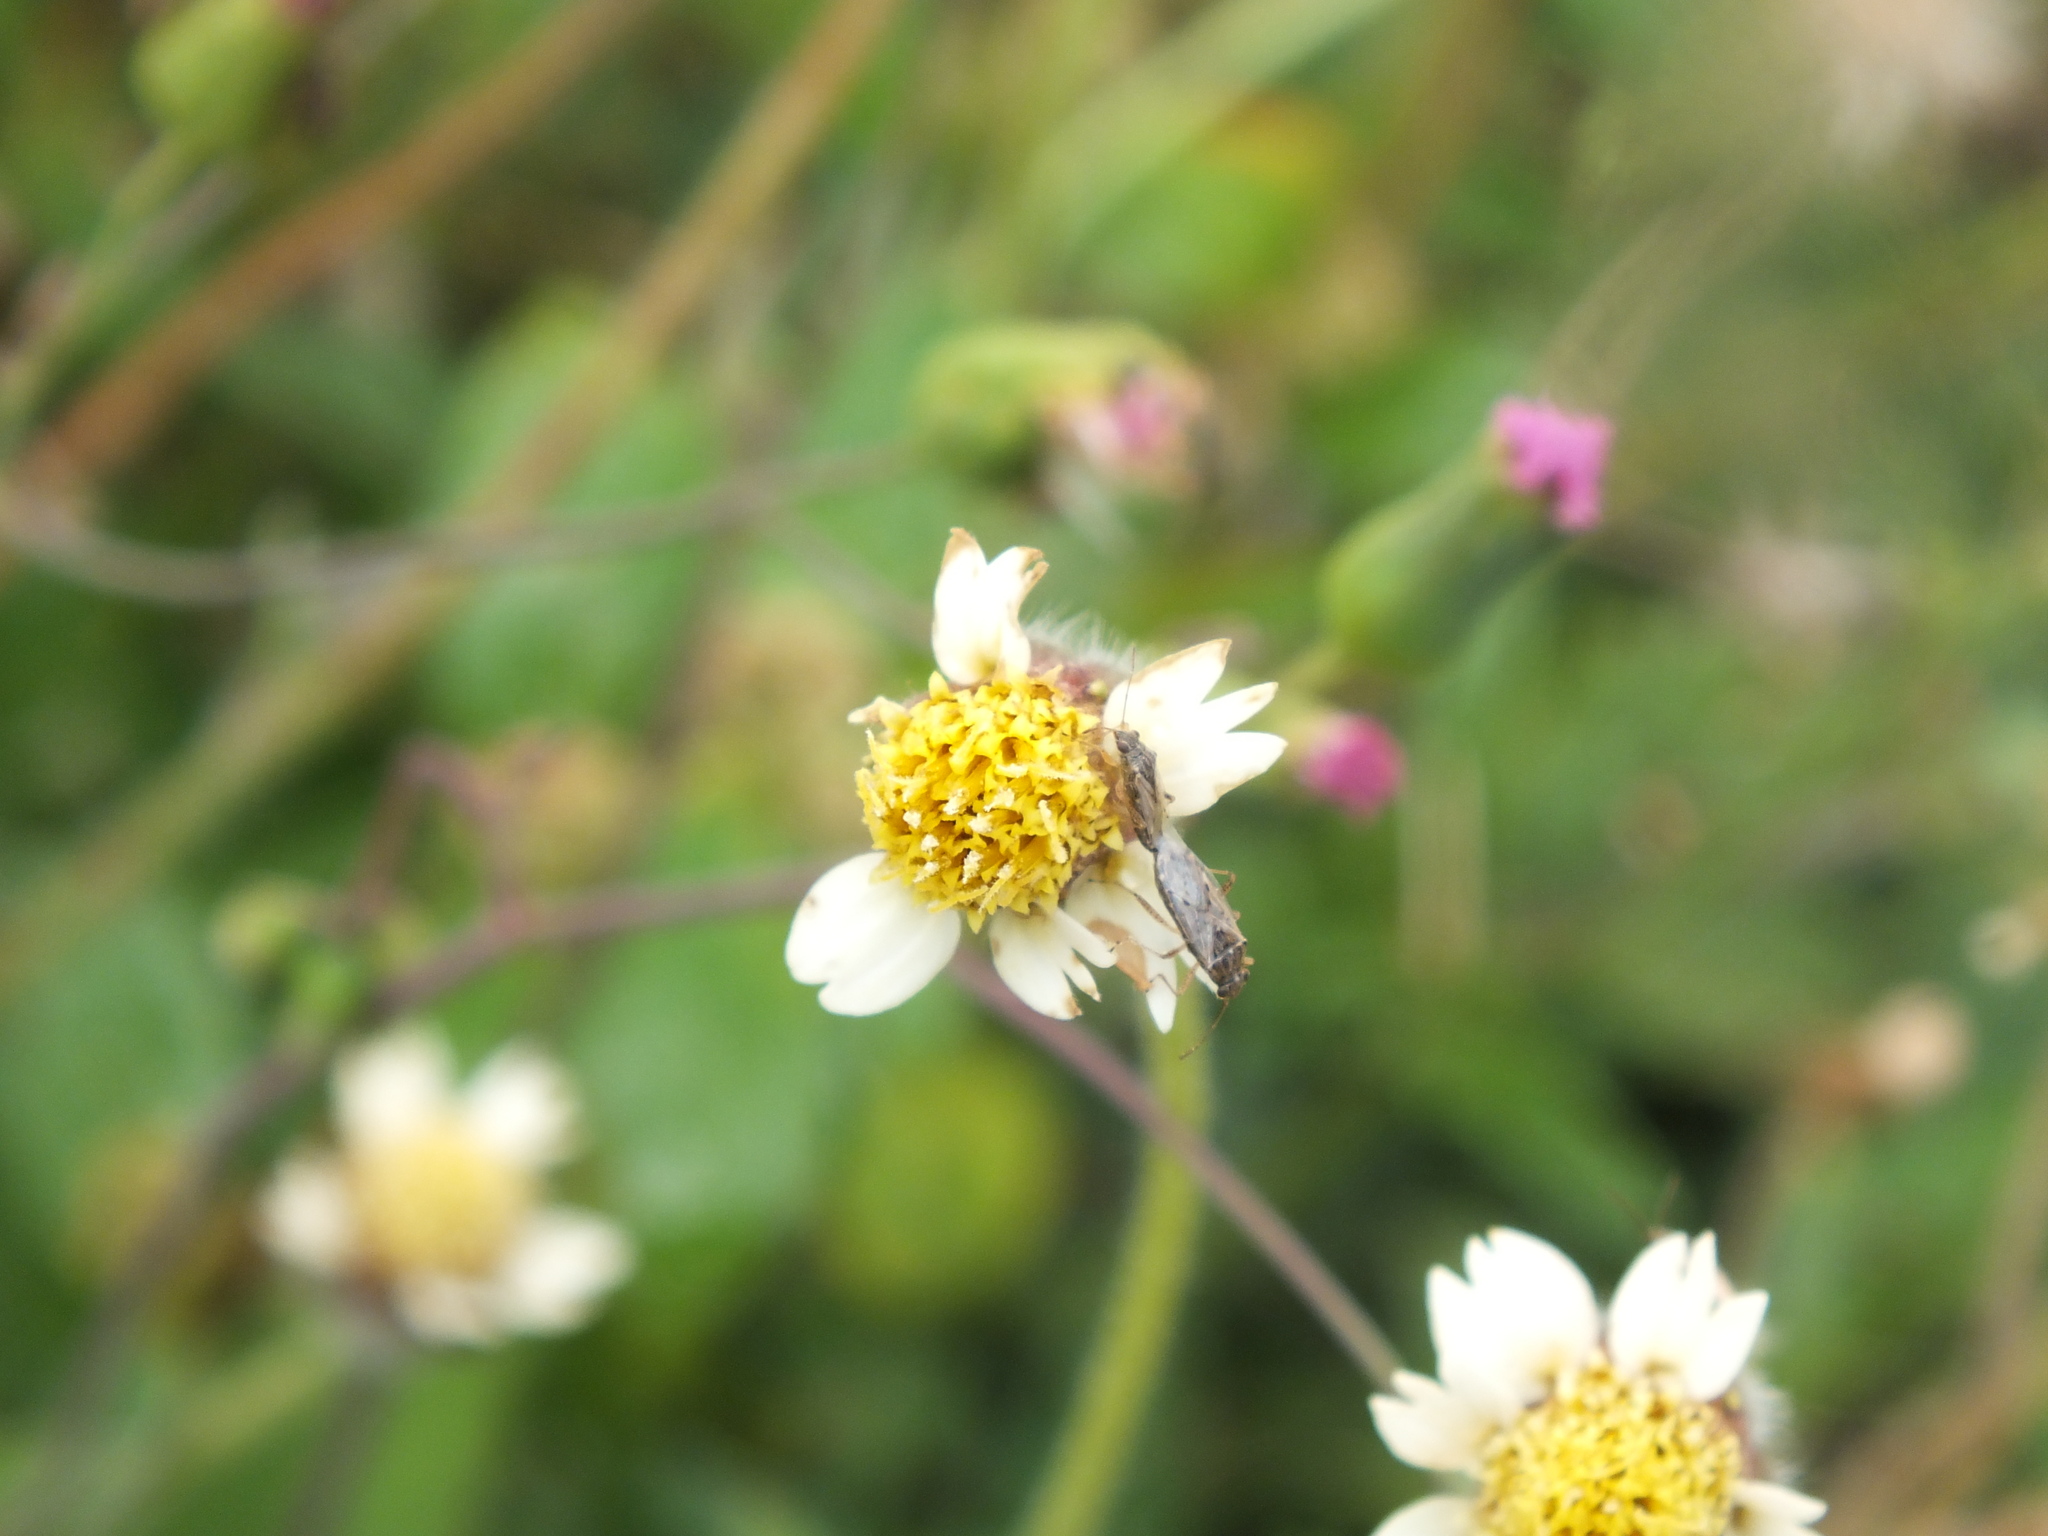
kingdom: Plantae
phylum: Tracheophyta
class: Magnoliopsida
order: Asterales
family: Asteraceae
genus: Tridax
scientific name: Tridax procumbens
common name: Coatbuttons
